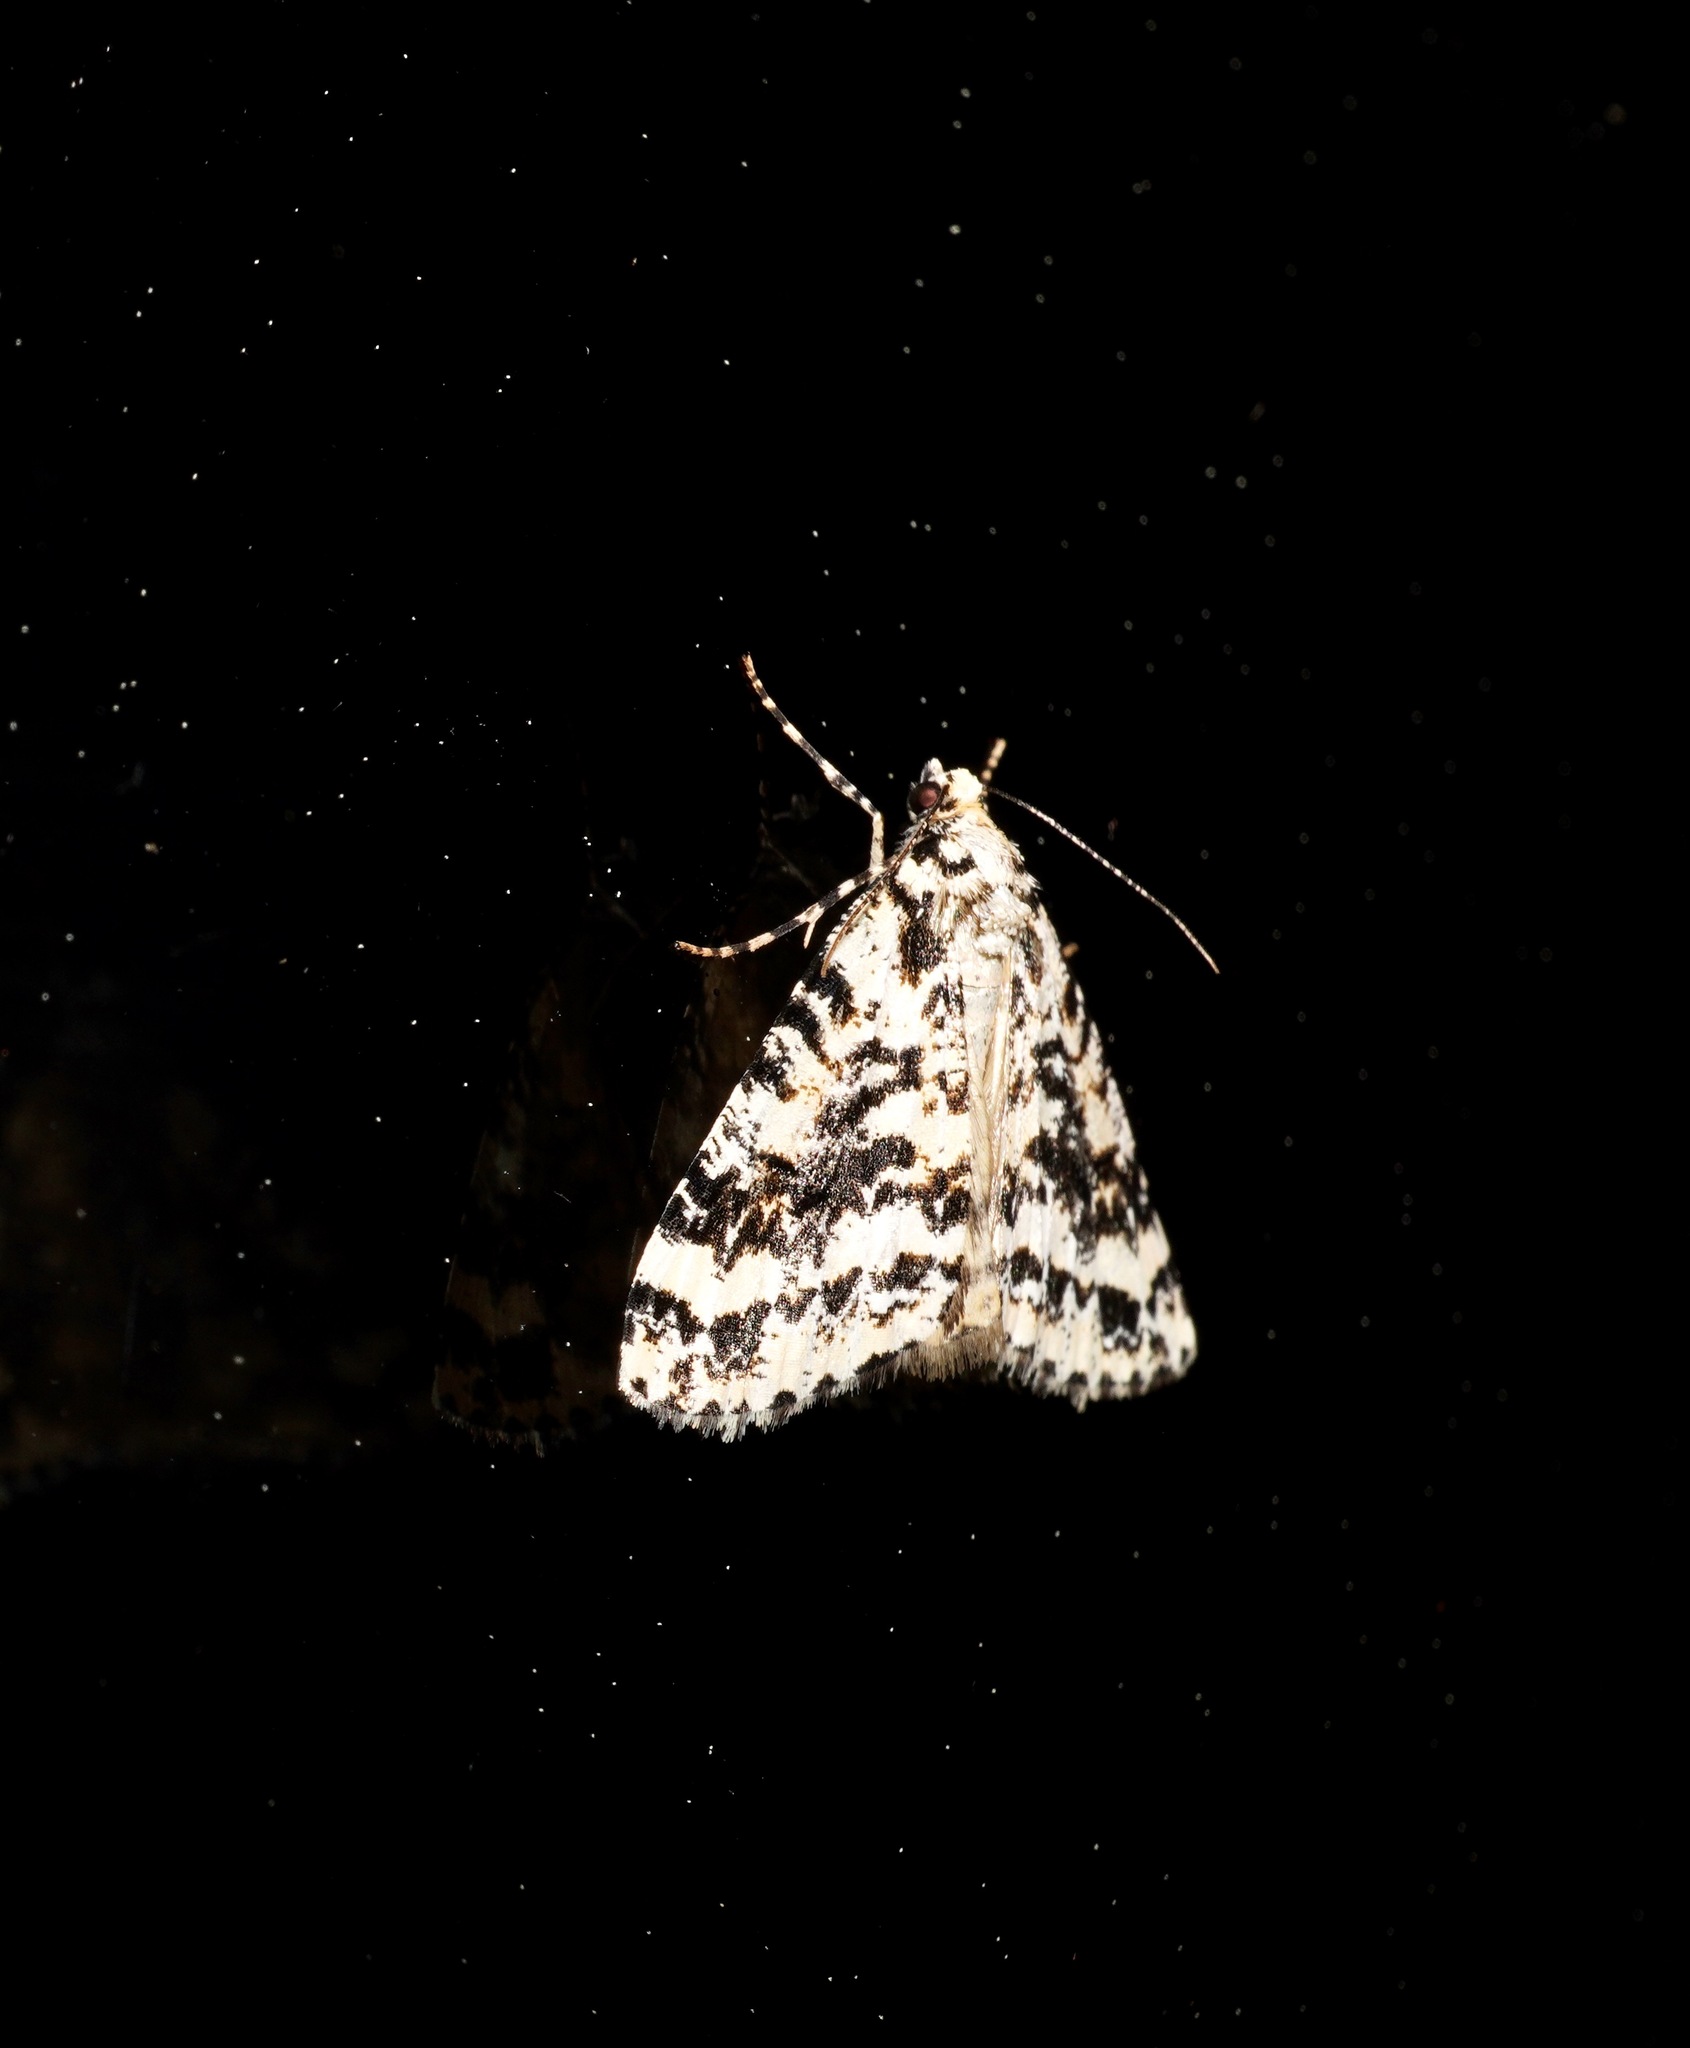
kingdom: Animalia
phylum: Arthropoda
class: Insecta
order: Lepidoptera
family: Geometridae
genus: Pseudocoremia
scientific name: Pseudocoremia leucelaea
